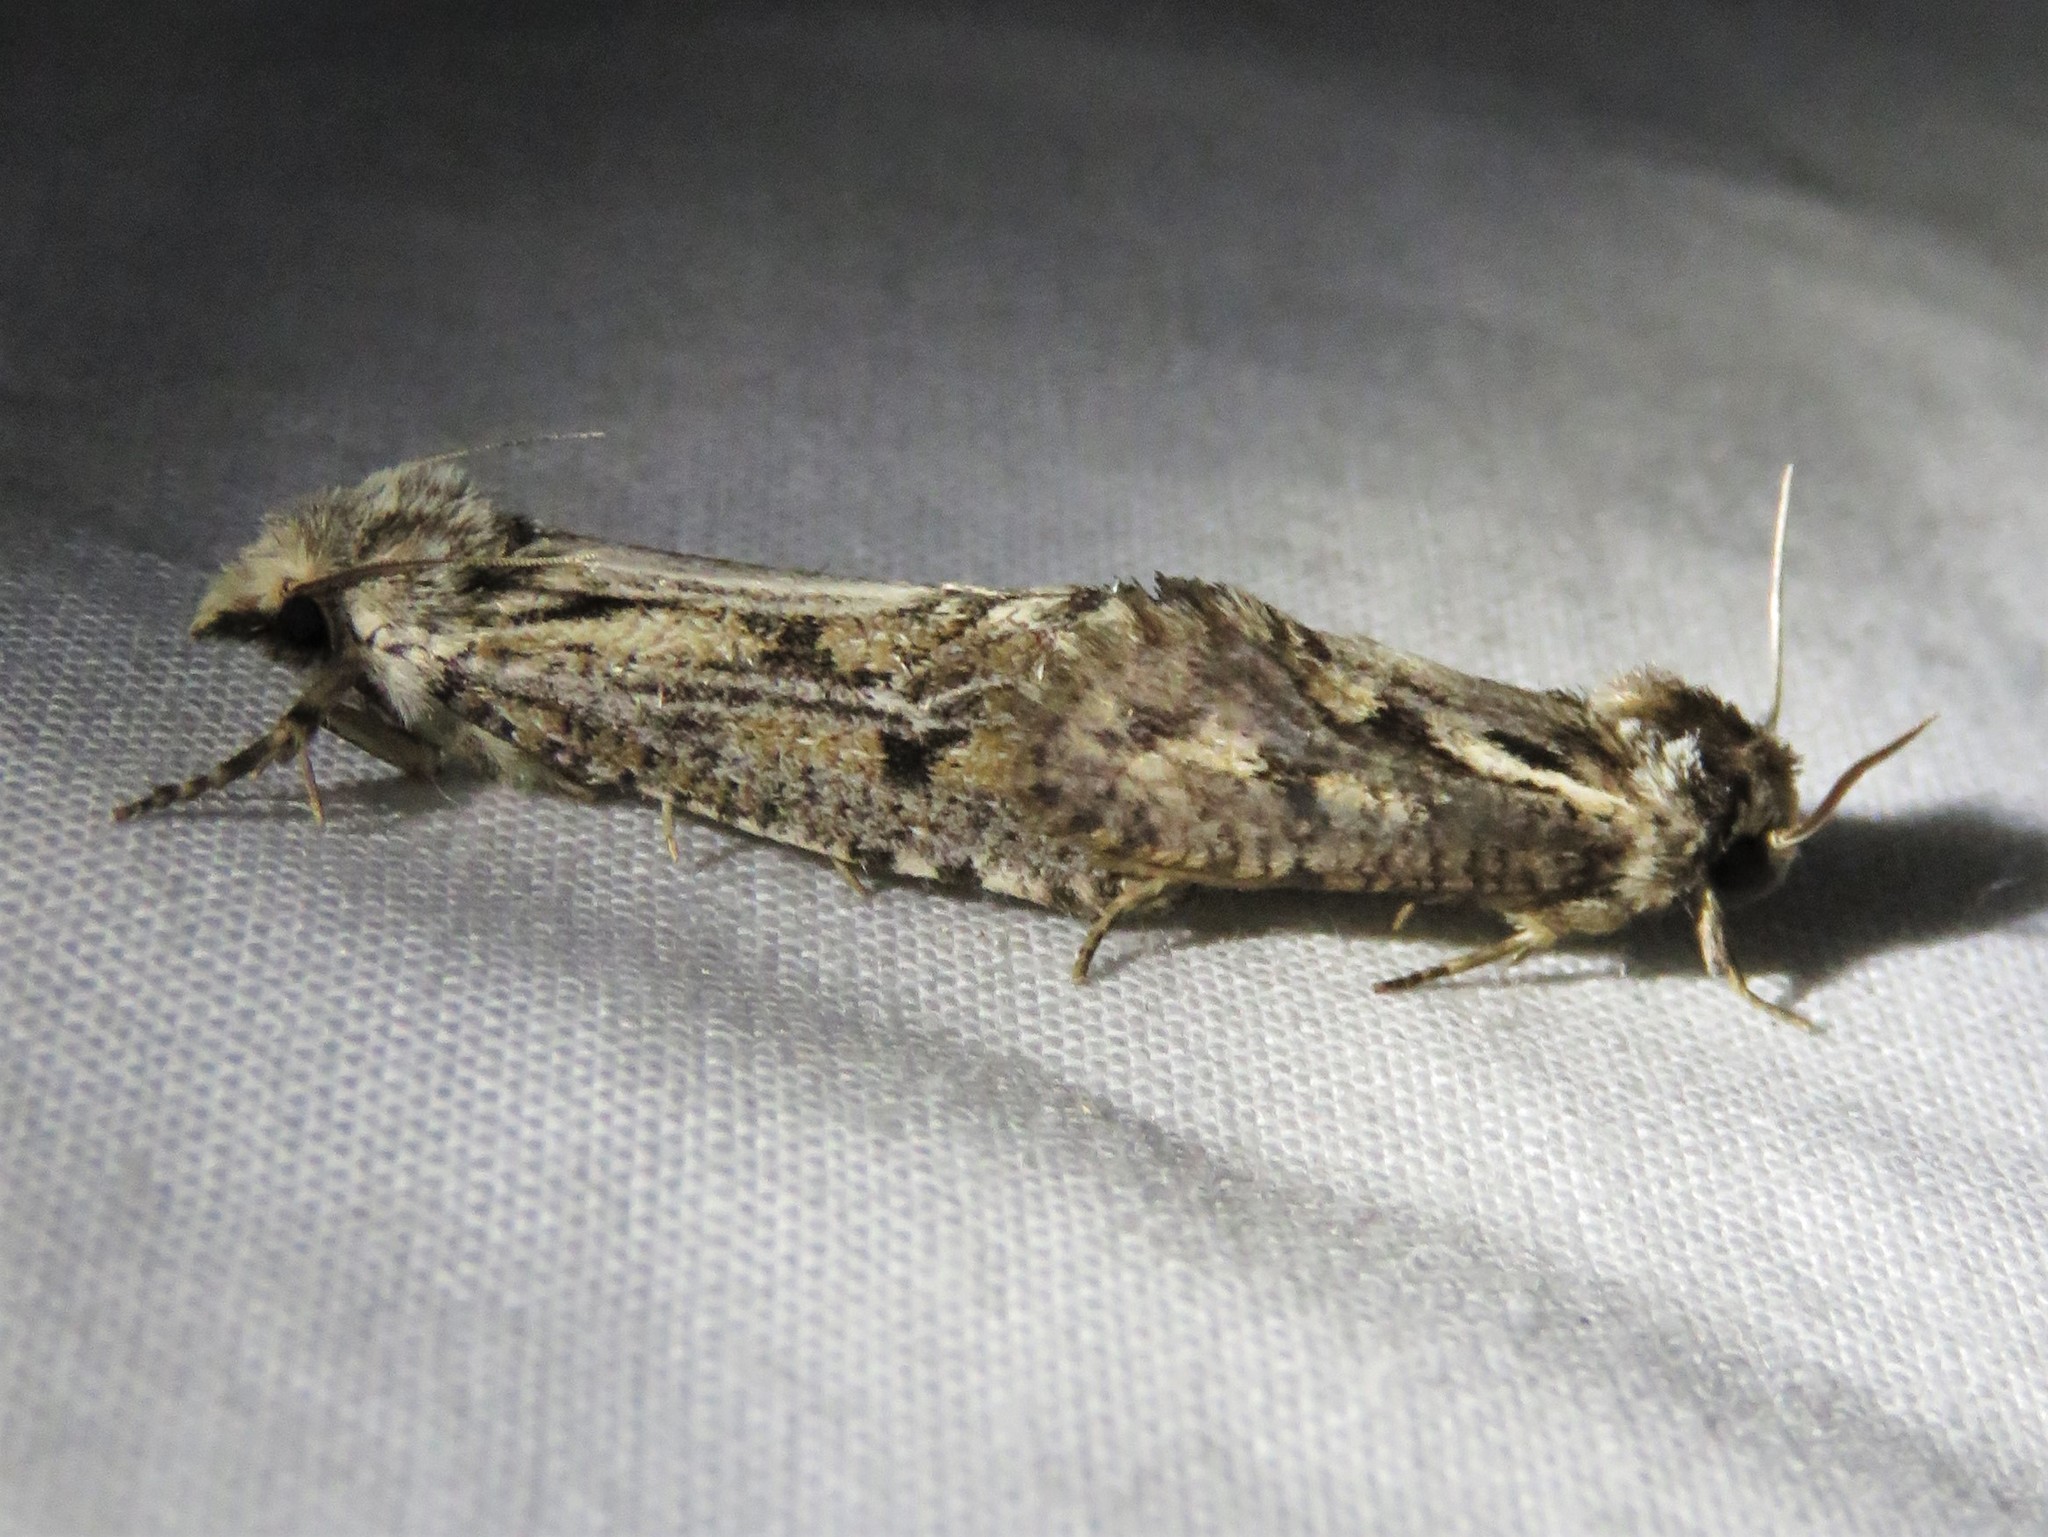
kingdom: Animalia
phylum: Arthropoda
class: Insecta
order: Lepidoptera
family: Tineidae
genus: Acrolophus
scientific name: Acrolophus popeanella
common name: Clemens' grass tubeworm moth
